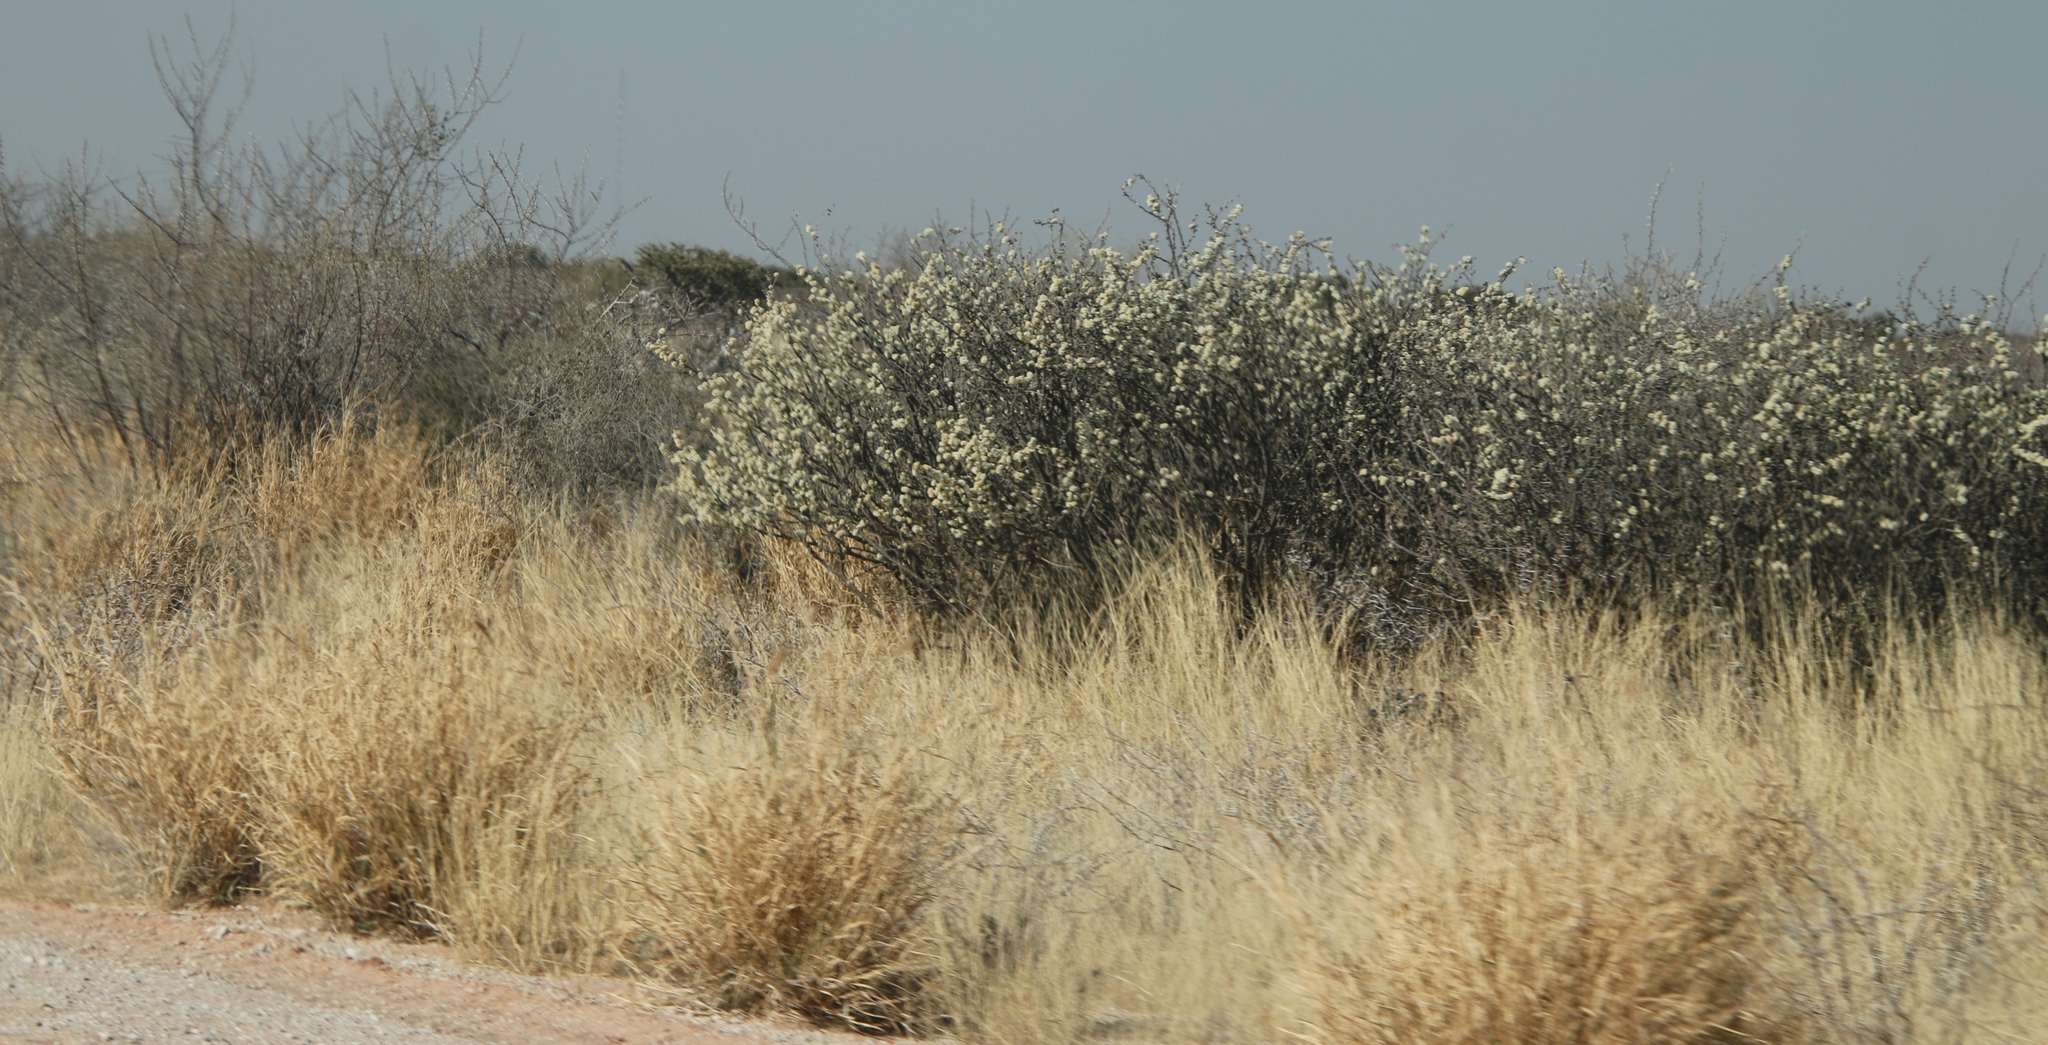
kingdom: Plantae
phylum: Tracheophyta
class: Magnoliopsida
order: Fabales
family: Fabaceae
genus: Senegalia
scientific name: Senegalia mellifera
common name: Hookthorn
